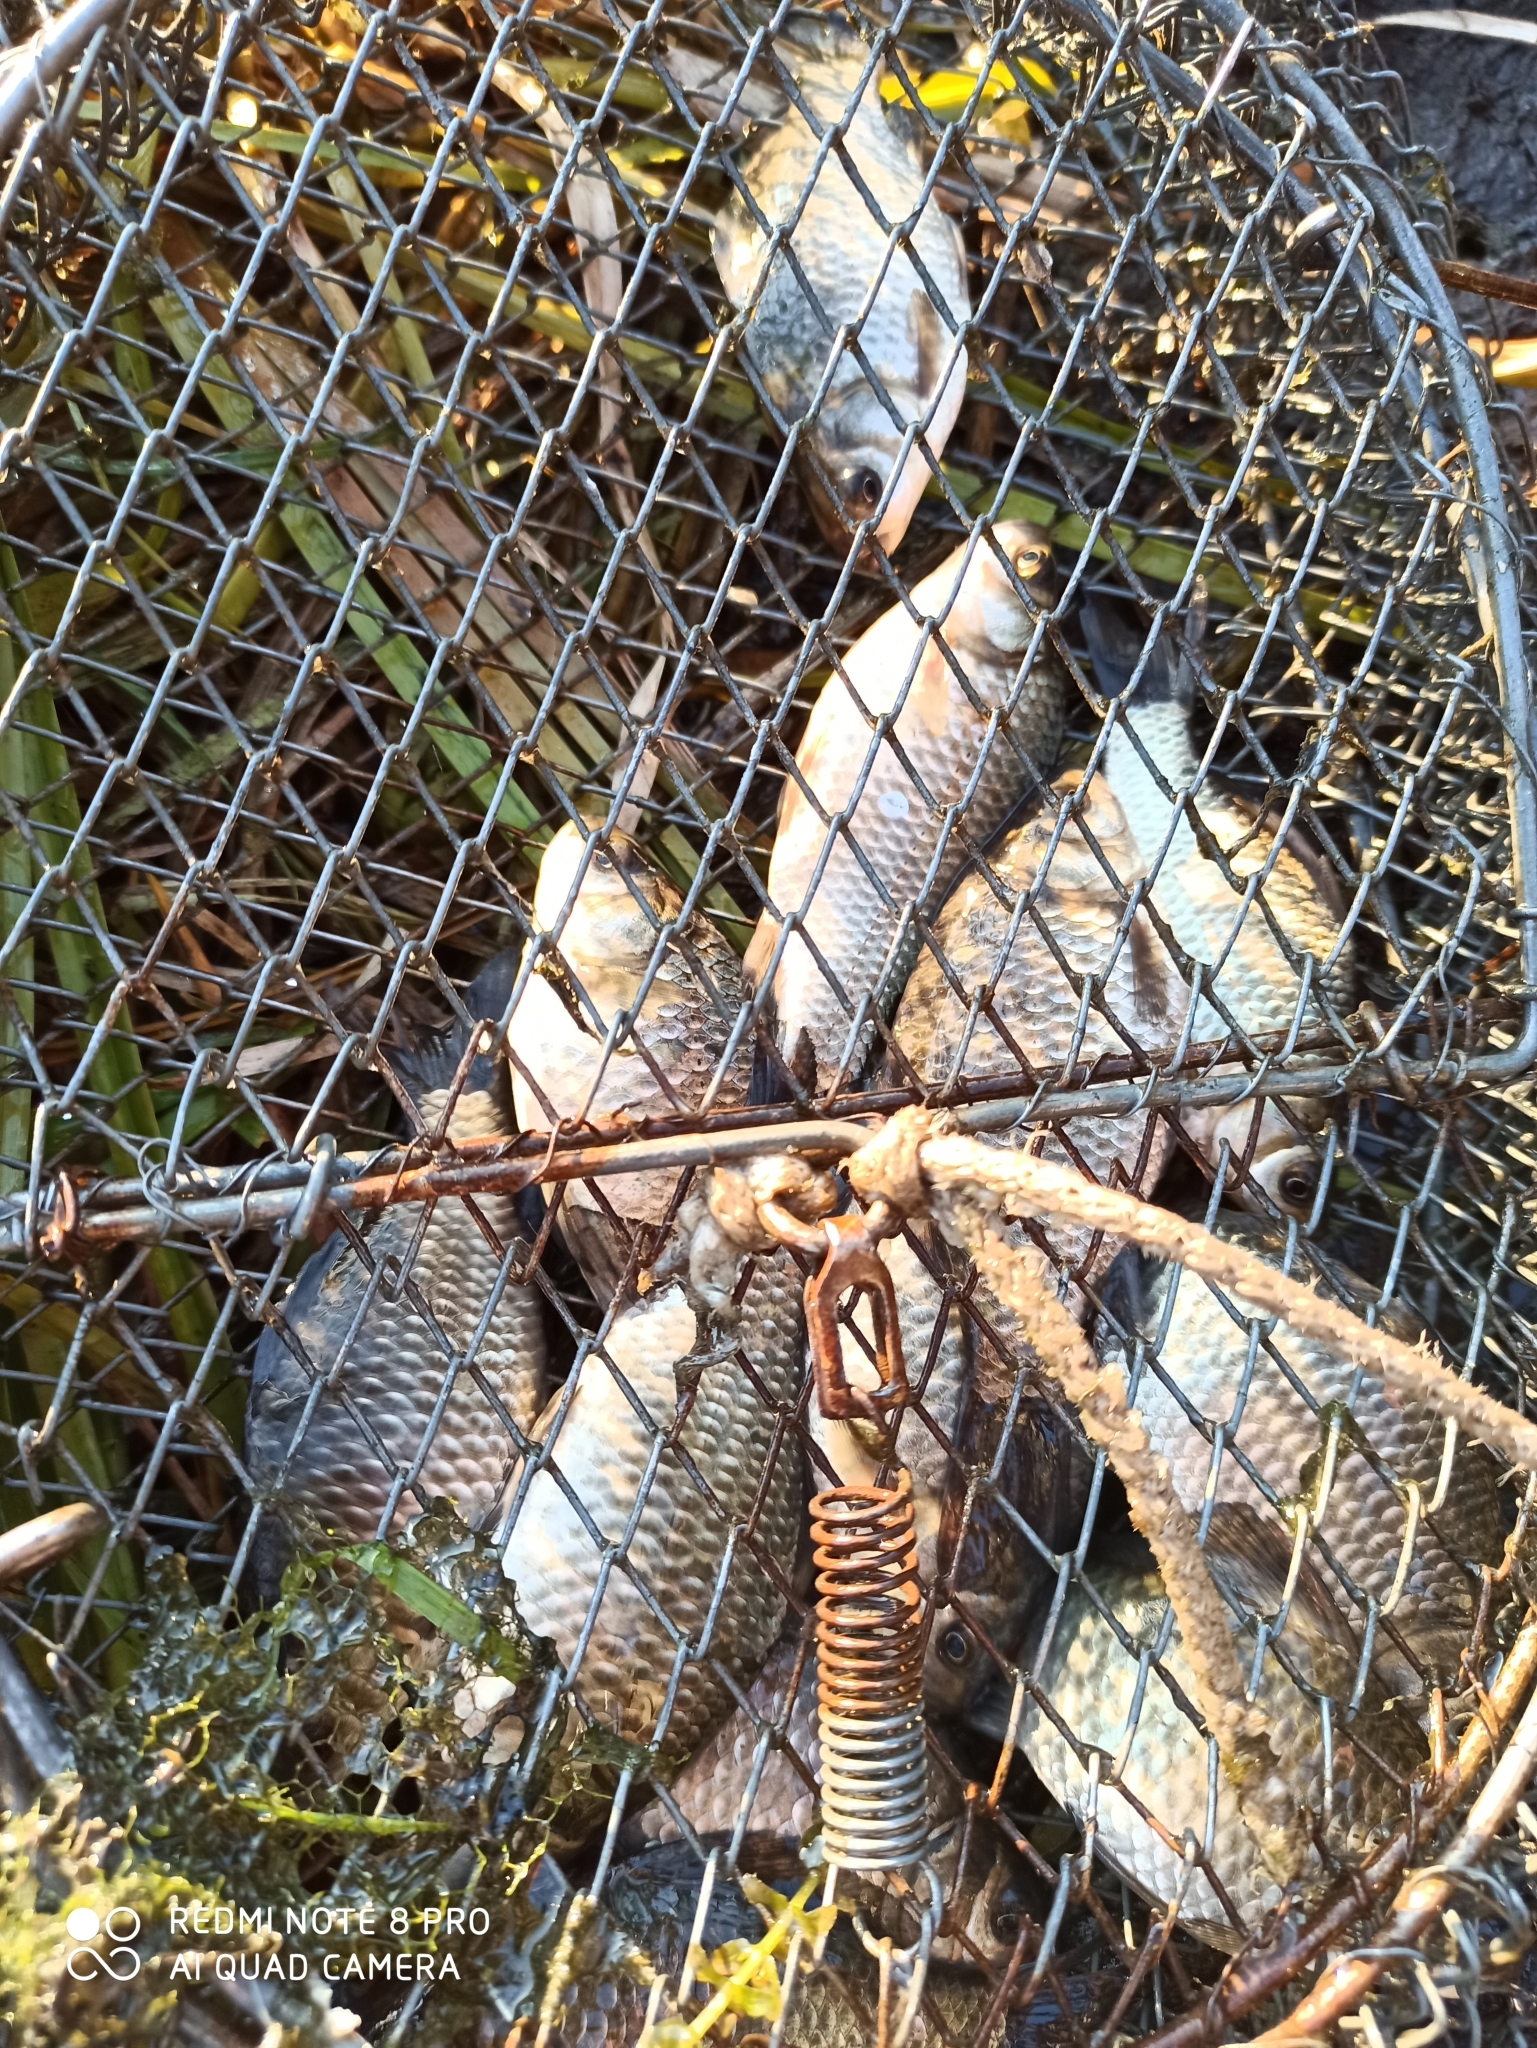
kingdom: Animalia
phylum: Chordata
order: Cypriniformes
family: Cyprinidae
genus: Carassius
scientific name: Carassius gibelio
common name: Prussian carp
